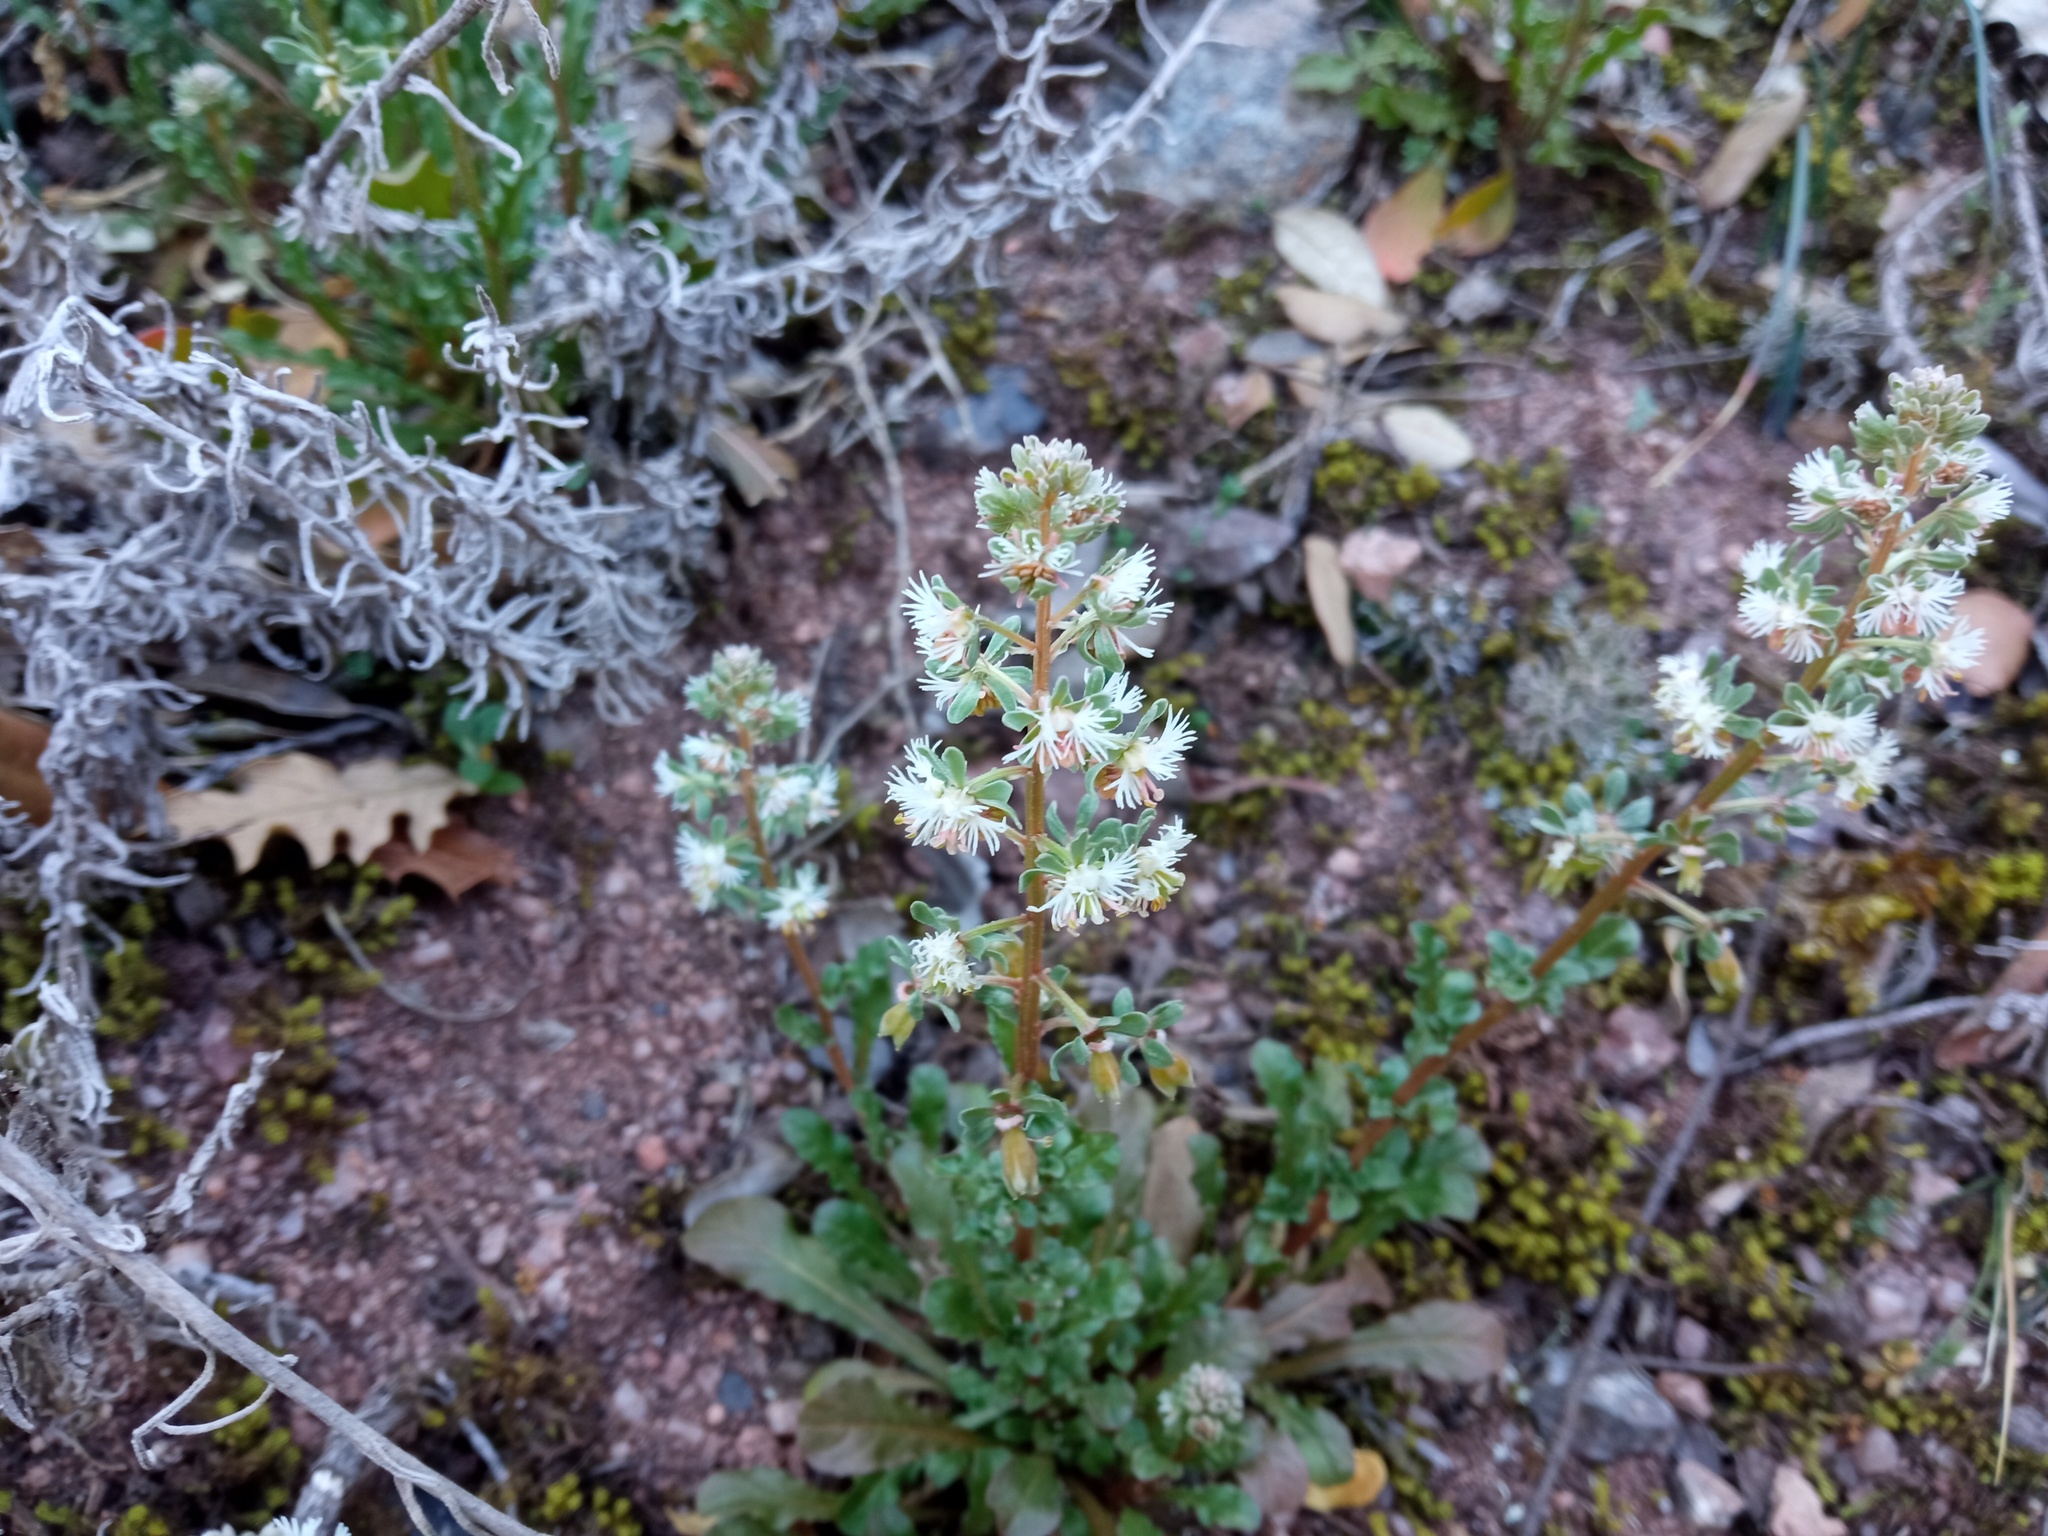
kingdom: Plantae
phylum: Tracheophyta
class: Magnoliopsida
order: Brassicales
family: Resedaceae
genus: Reseda
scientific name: Reseda phyteuma
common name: Corn mignonette
